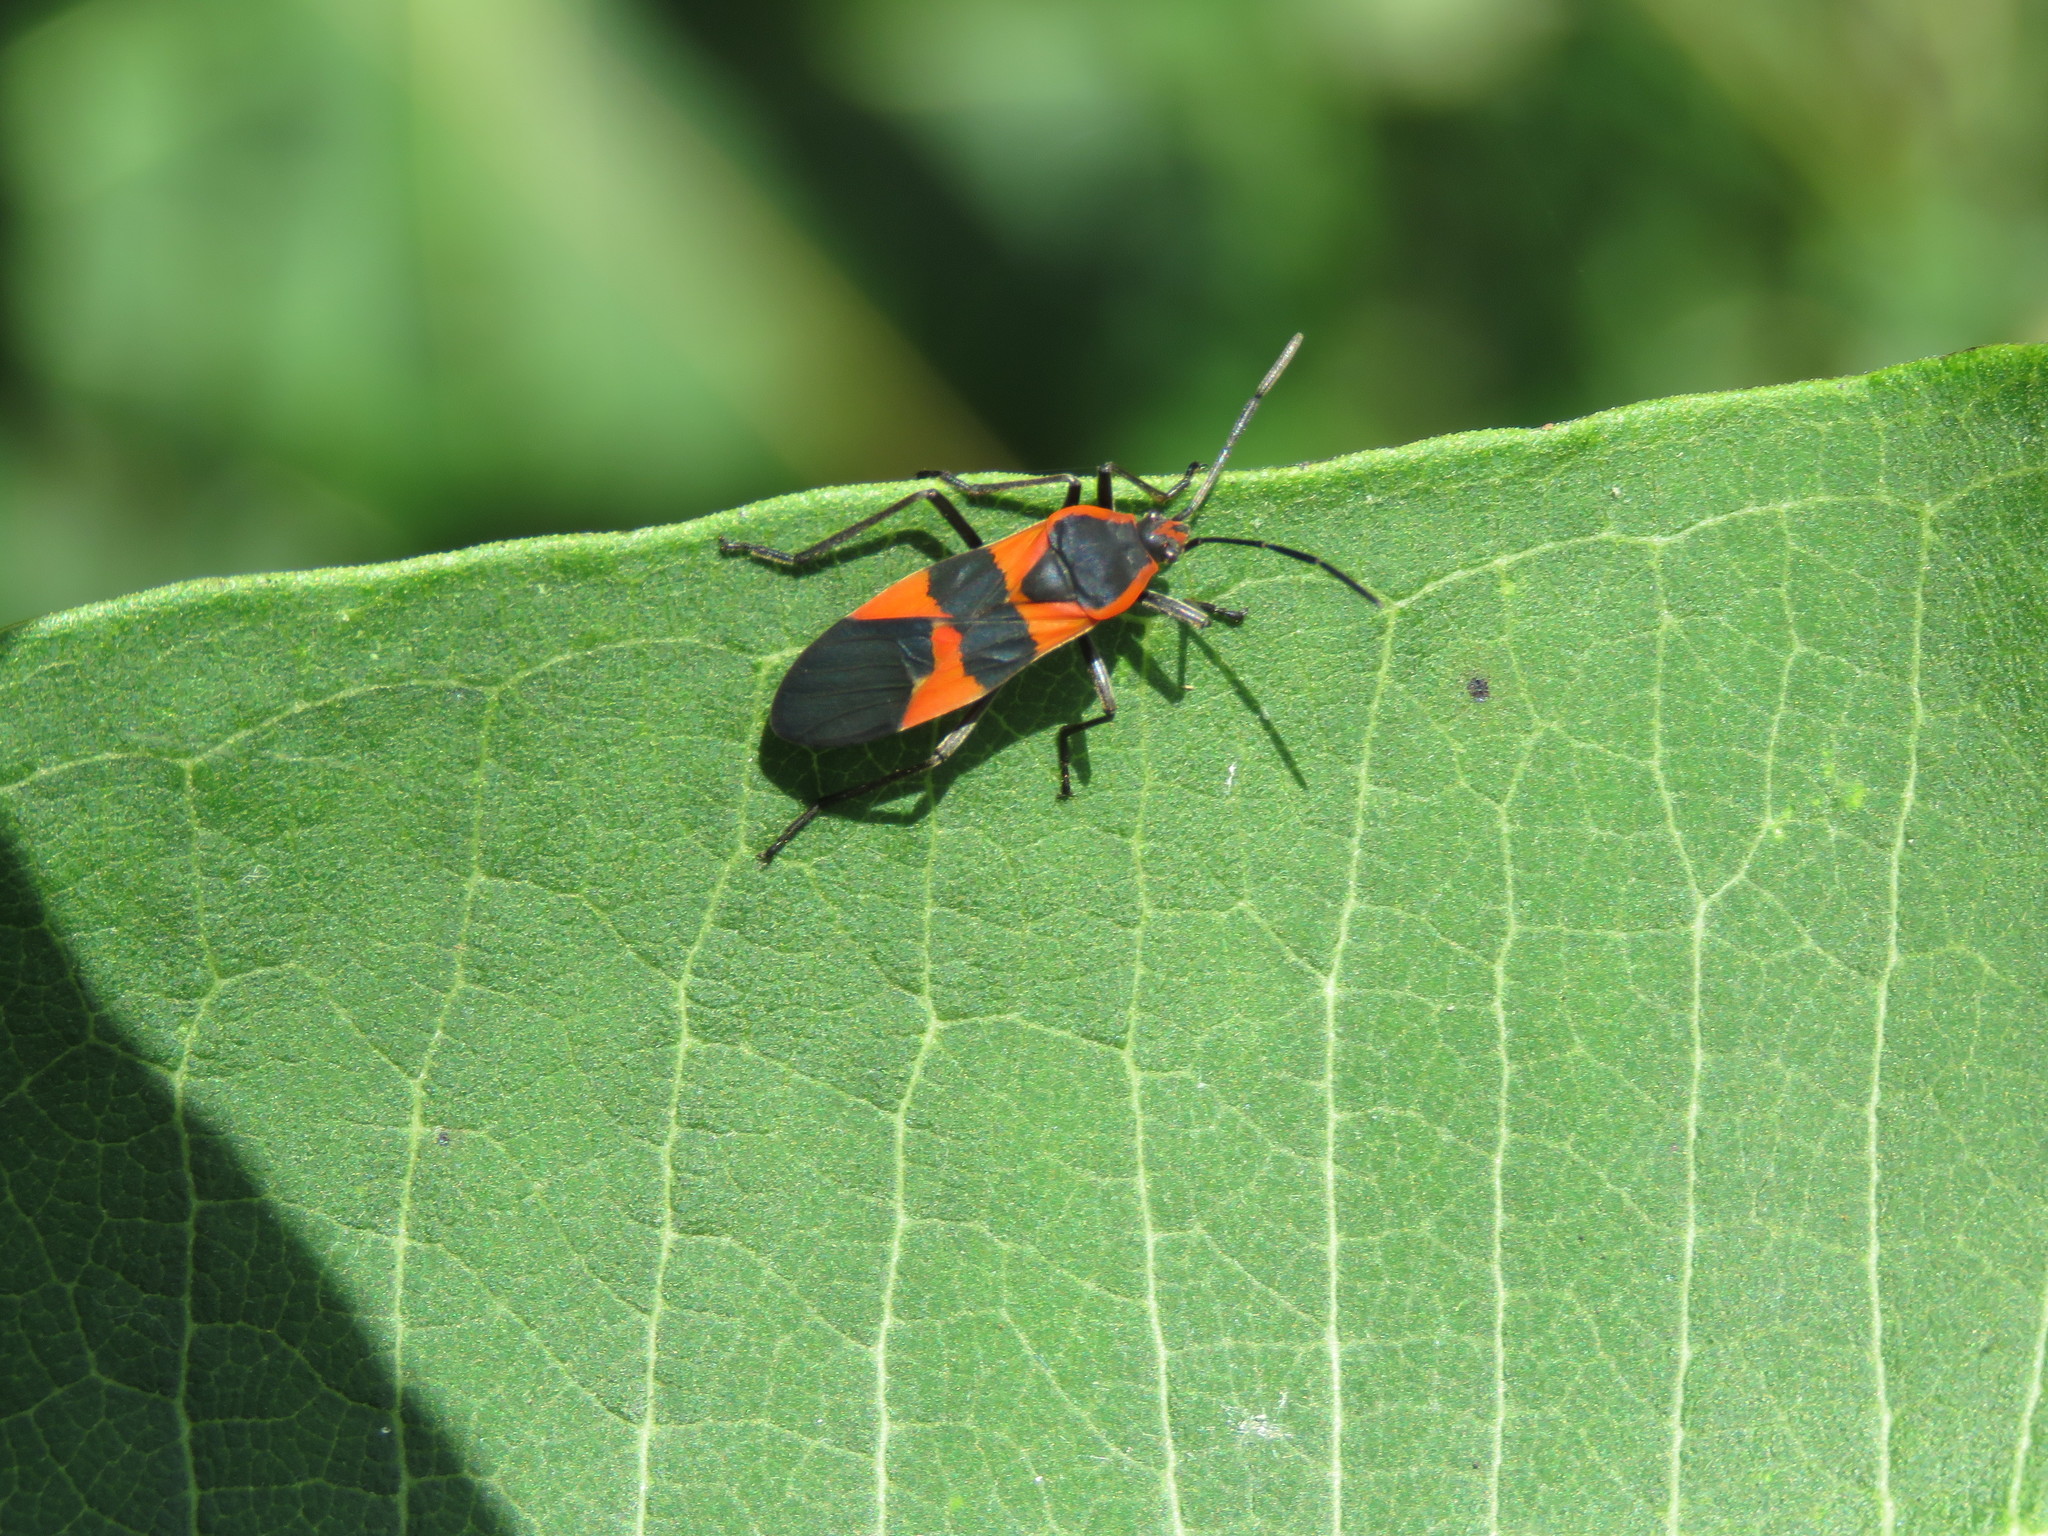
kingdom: Animalia
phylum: Arthropoda
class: Insecta
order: Hemiptera
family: Lygaeidae
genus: Oncopeltus
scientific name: Oncopeltus fasciatus
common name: Large milkweed bug
